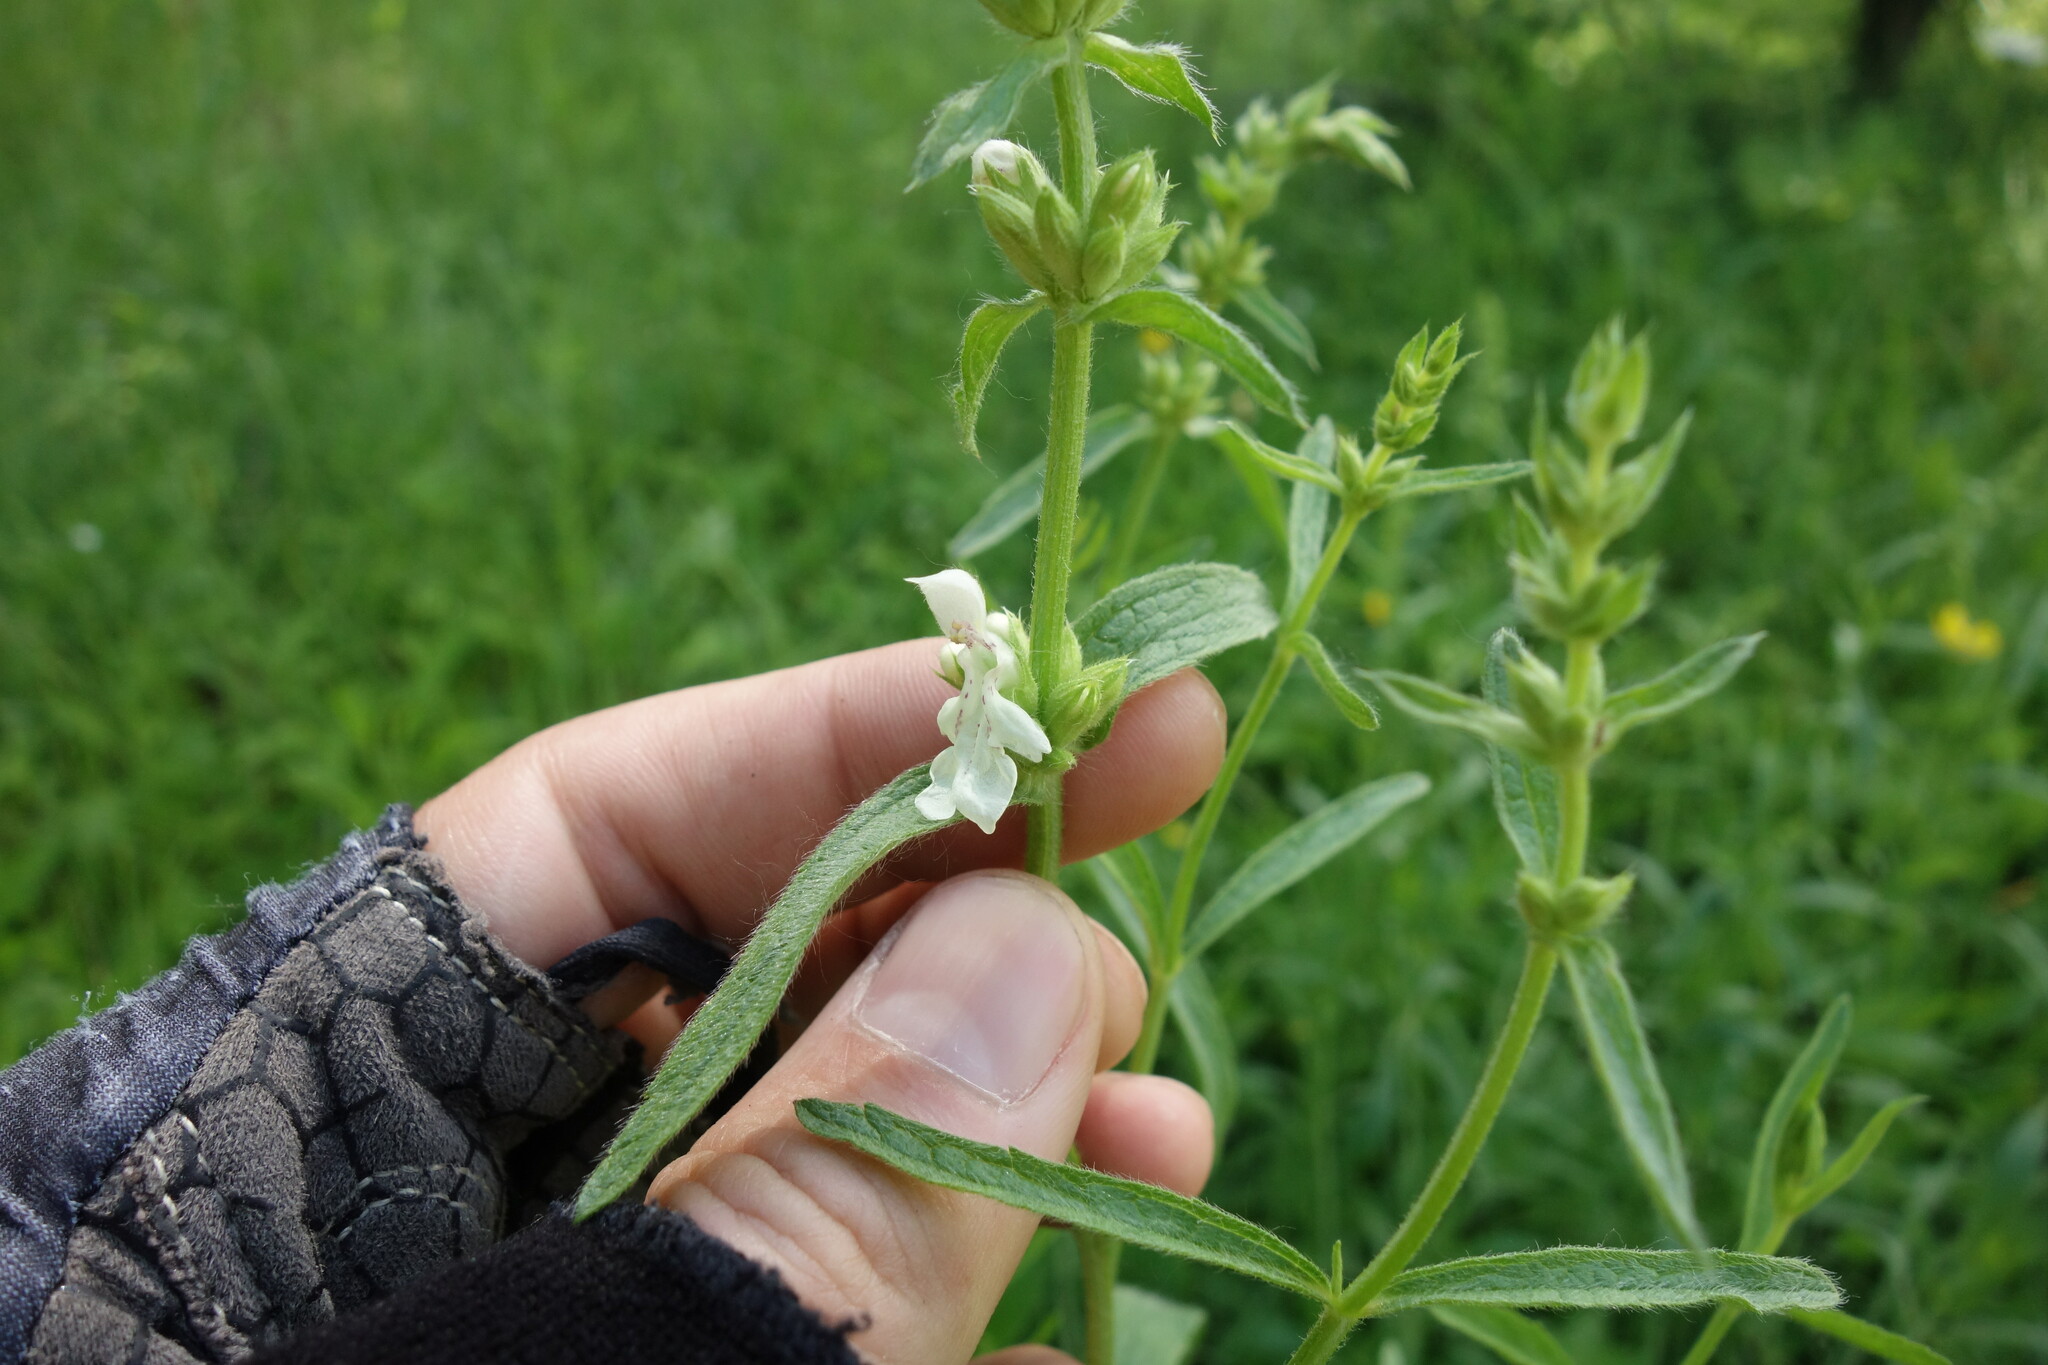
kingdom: Plantae
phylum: Tracheophyta
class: Magnoliopsida
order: Lamiales
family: Lamiaceae
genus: Stachys
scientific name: Stachys recta
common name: Perennial yellow-woundwort
